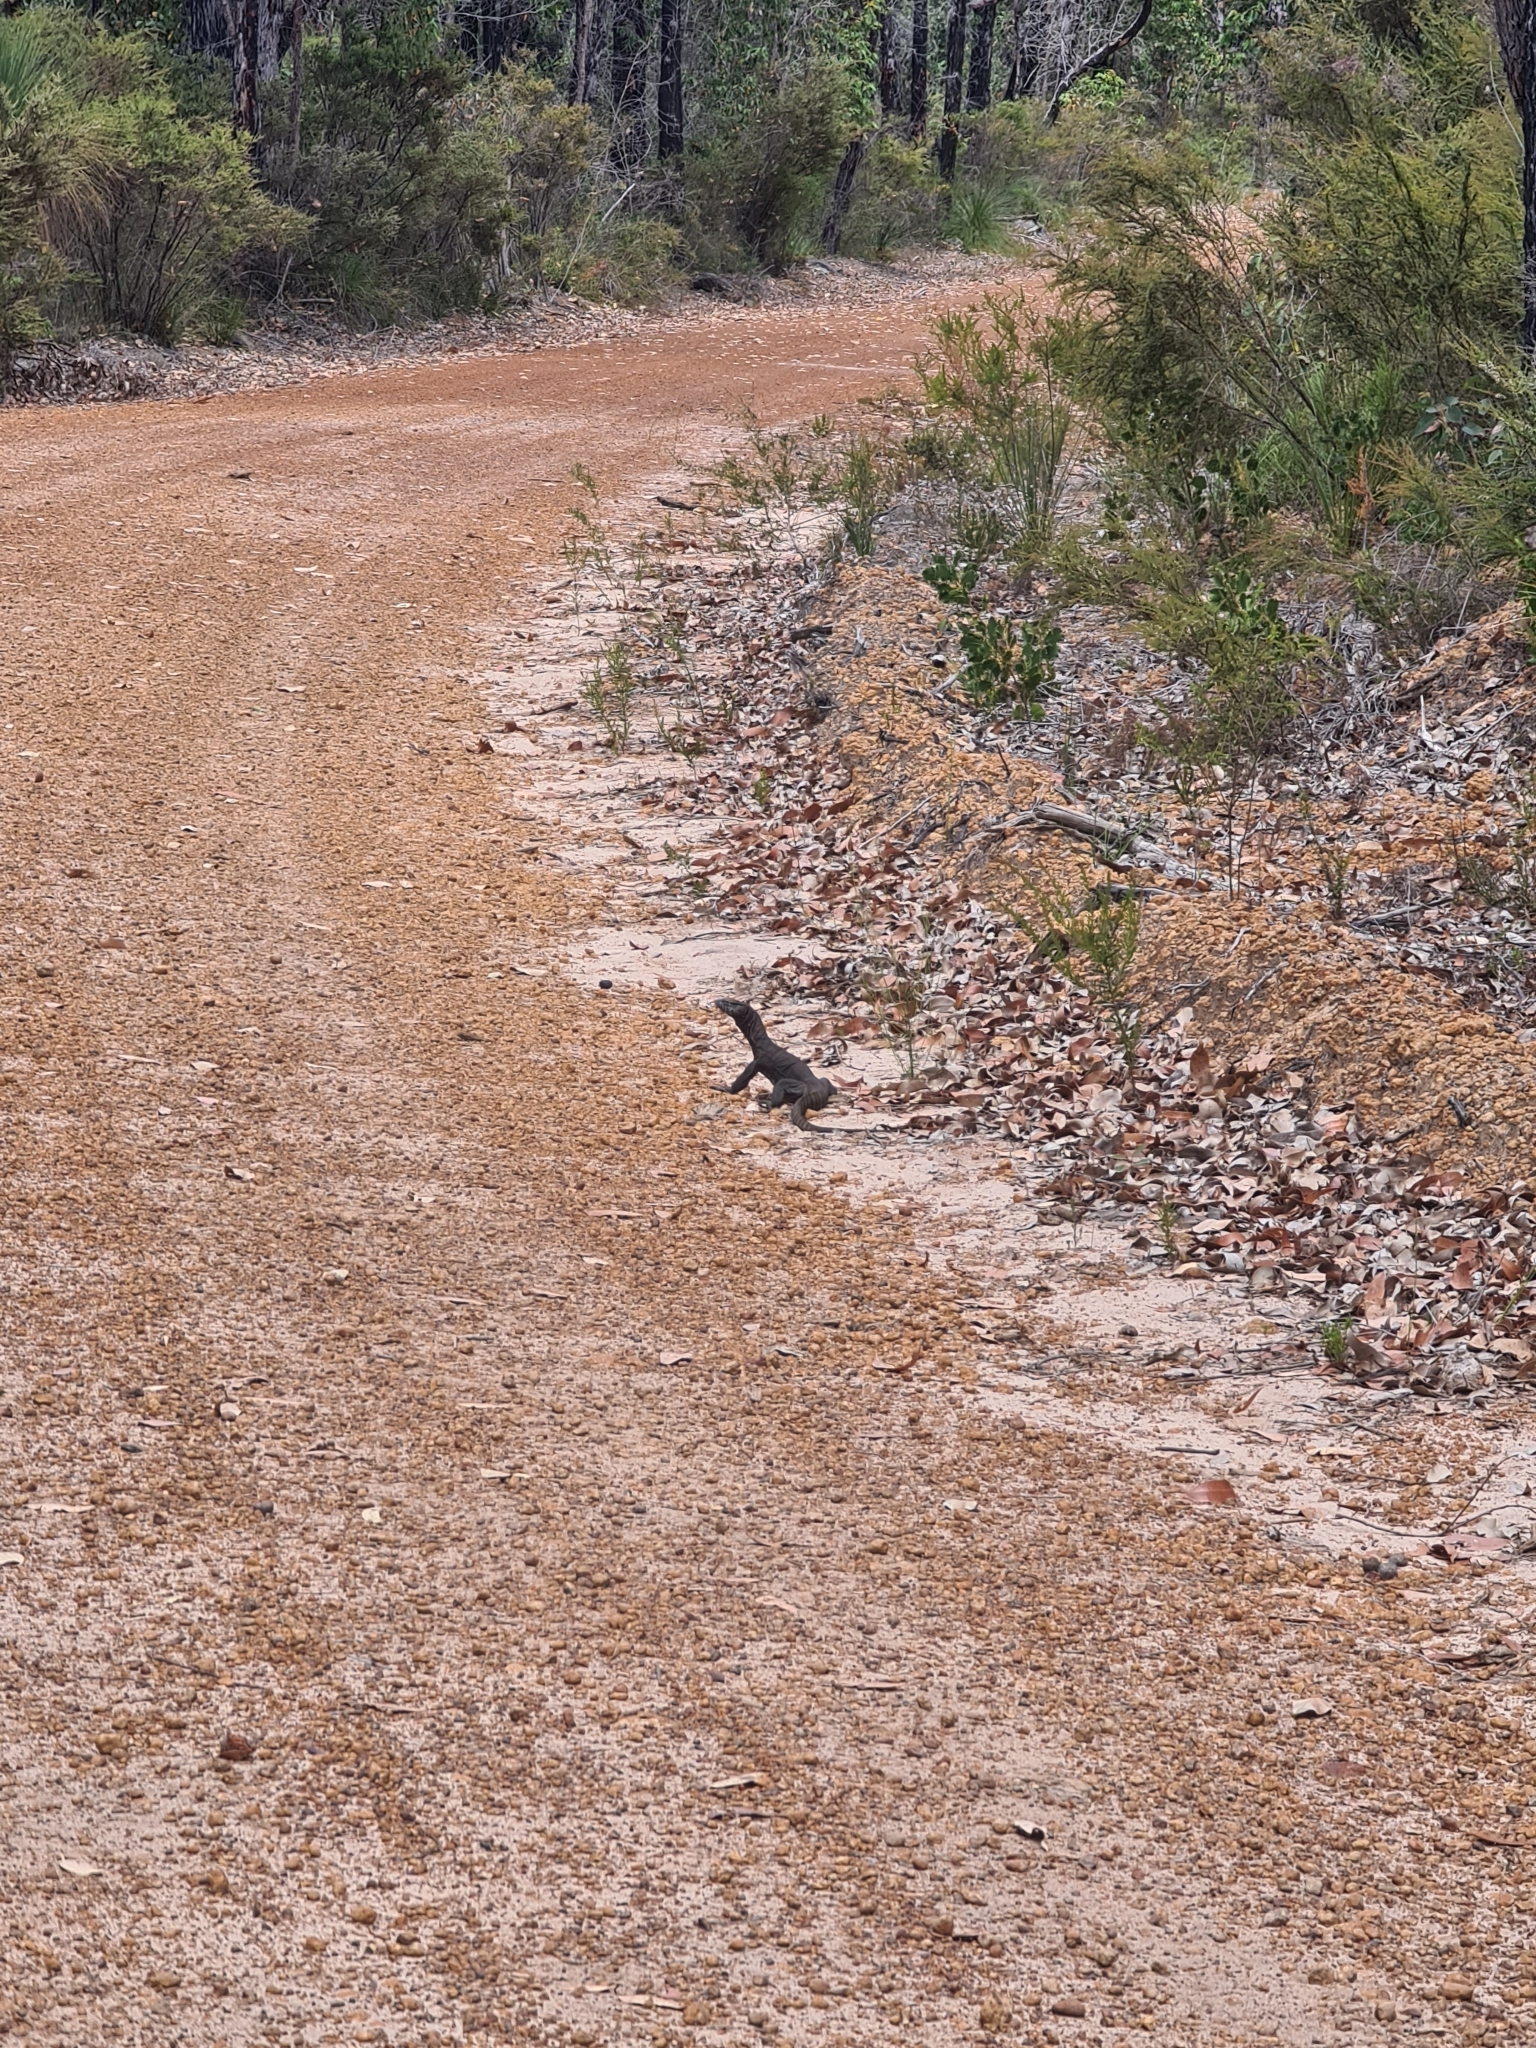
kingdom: Animalia
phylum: Chordata
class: Squamata
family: Varanidae
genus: Varanus
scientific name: Varanus rosenbergi
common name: Heath monitor
